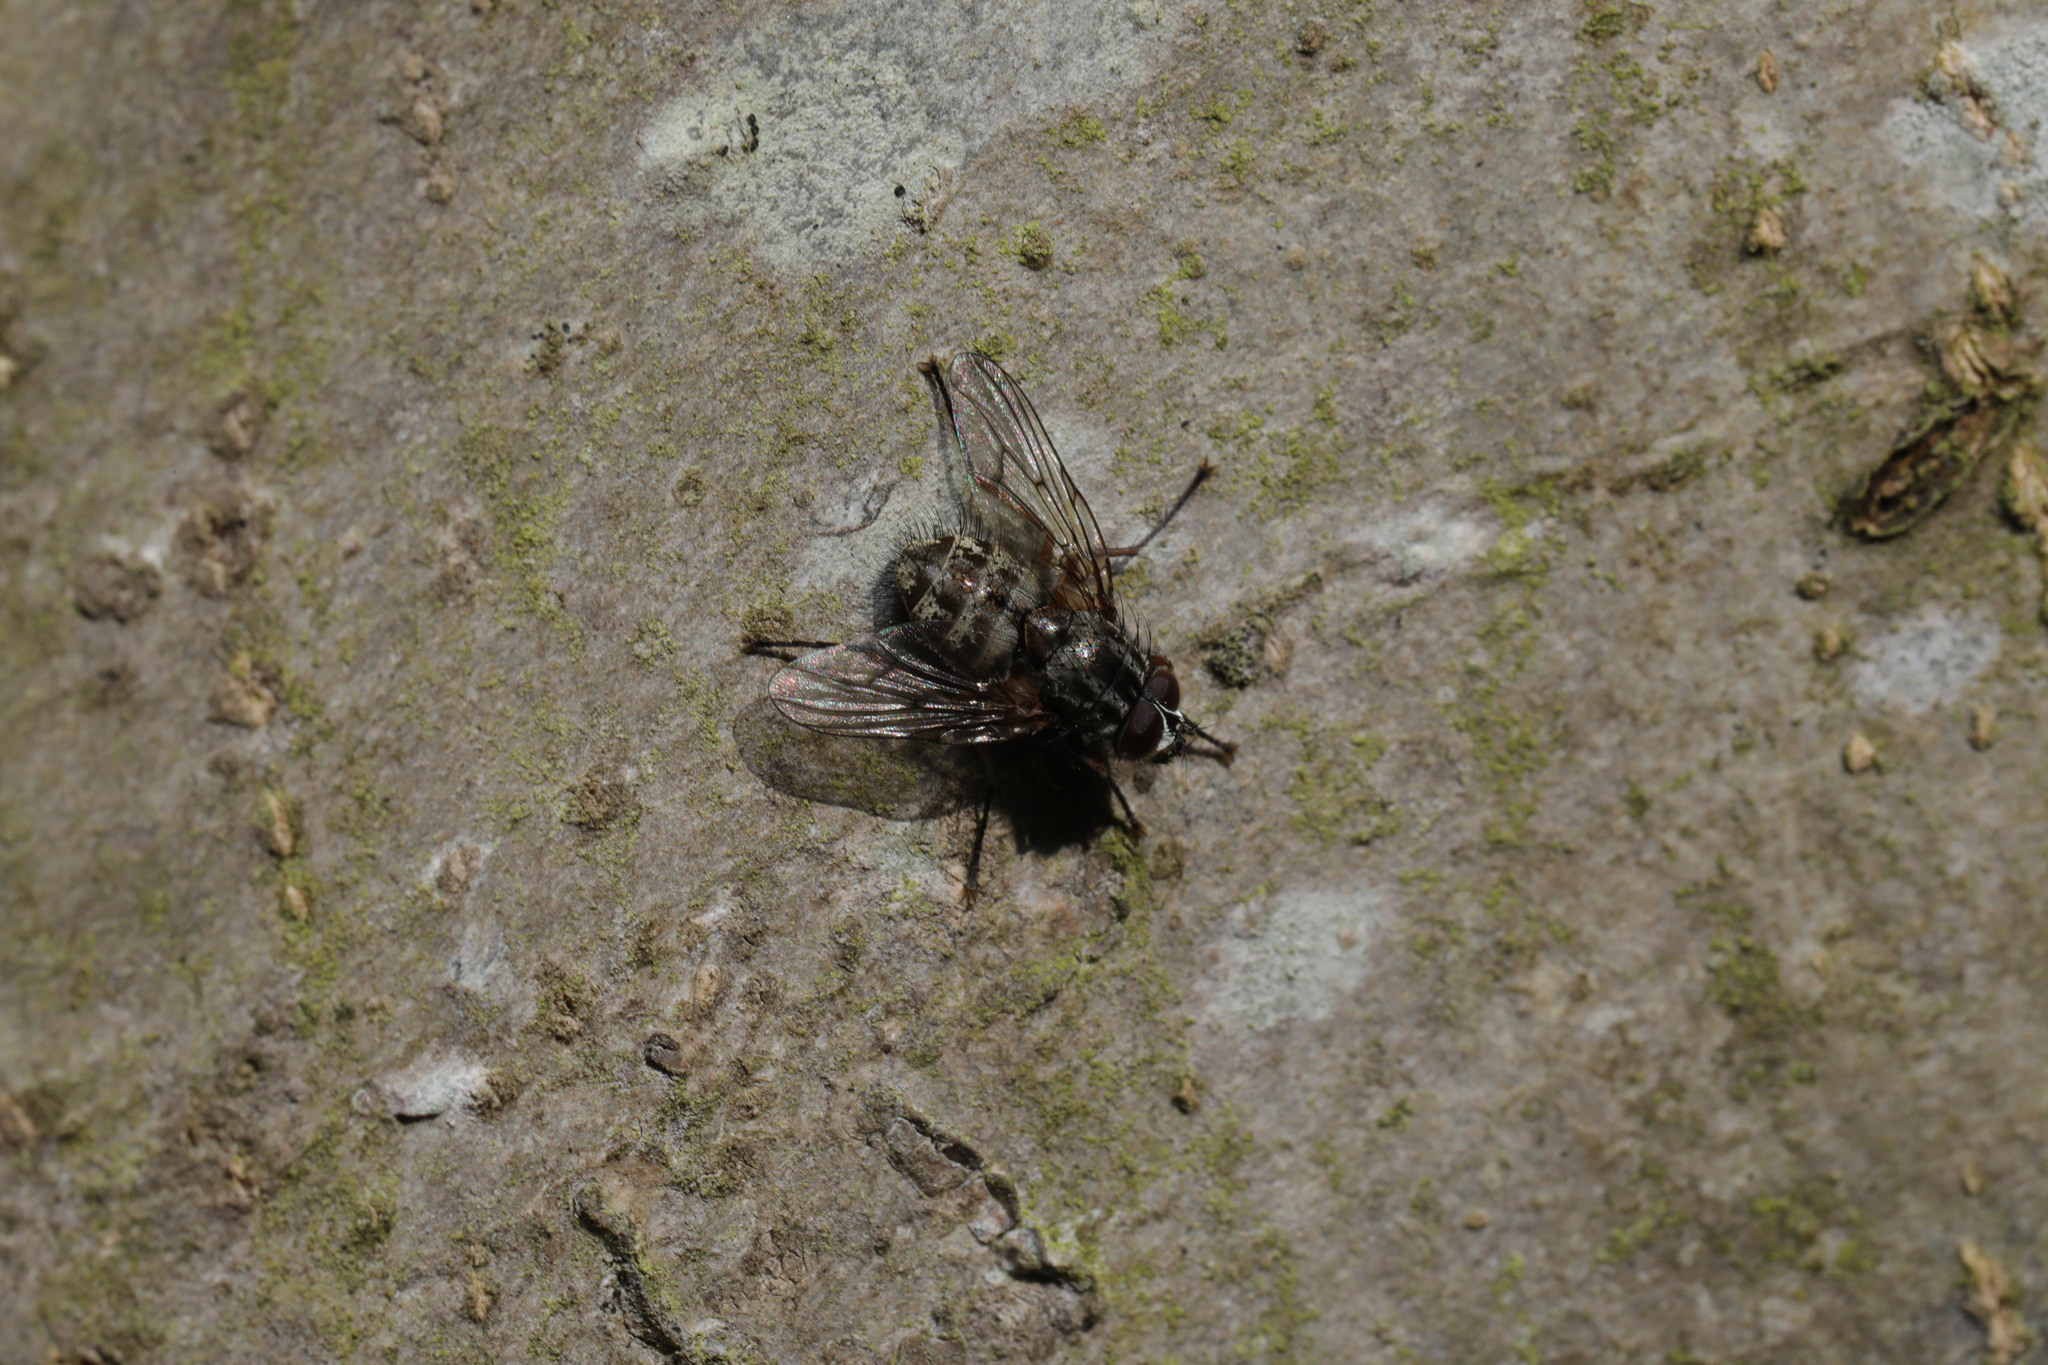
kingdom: Animalia
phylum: Arthropoda
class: Insecta
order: Diptera
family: Muscidae
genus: Helina
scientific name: Helina evecta
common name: Muscid fly
